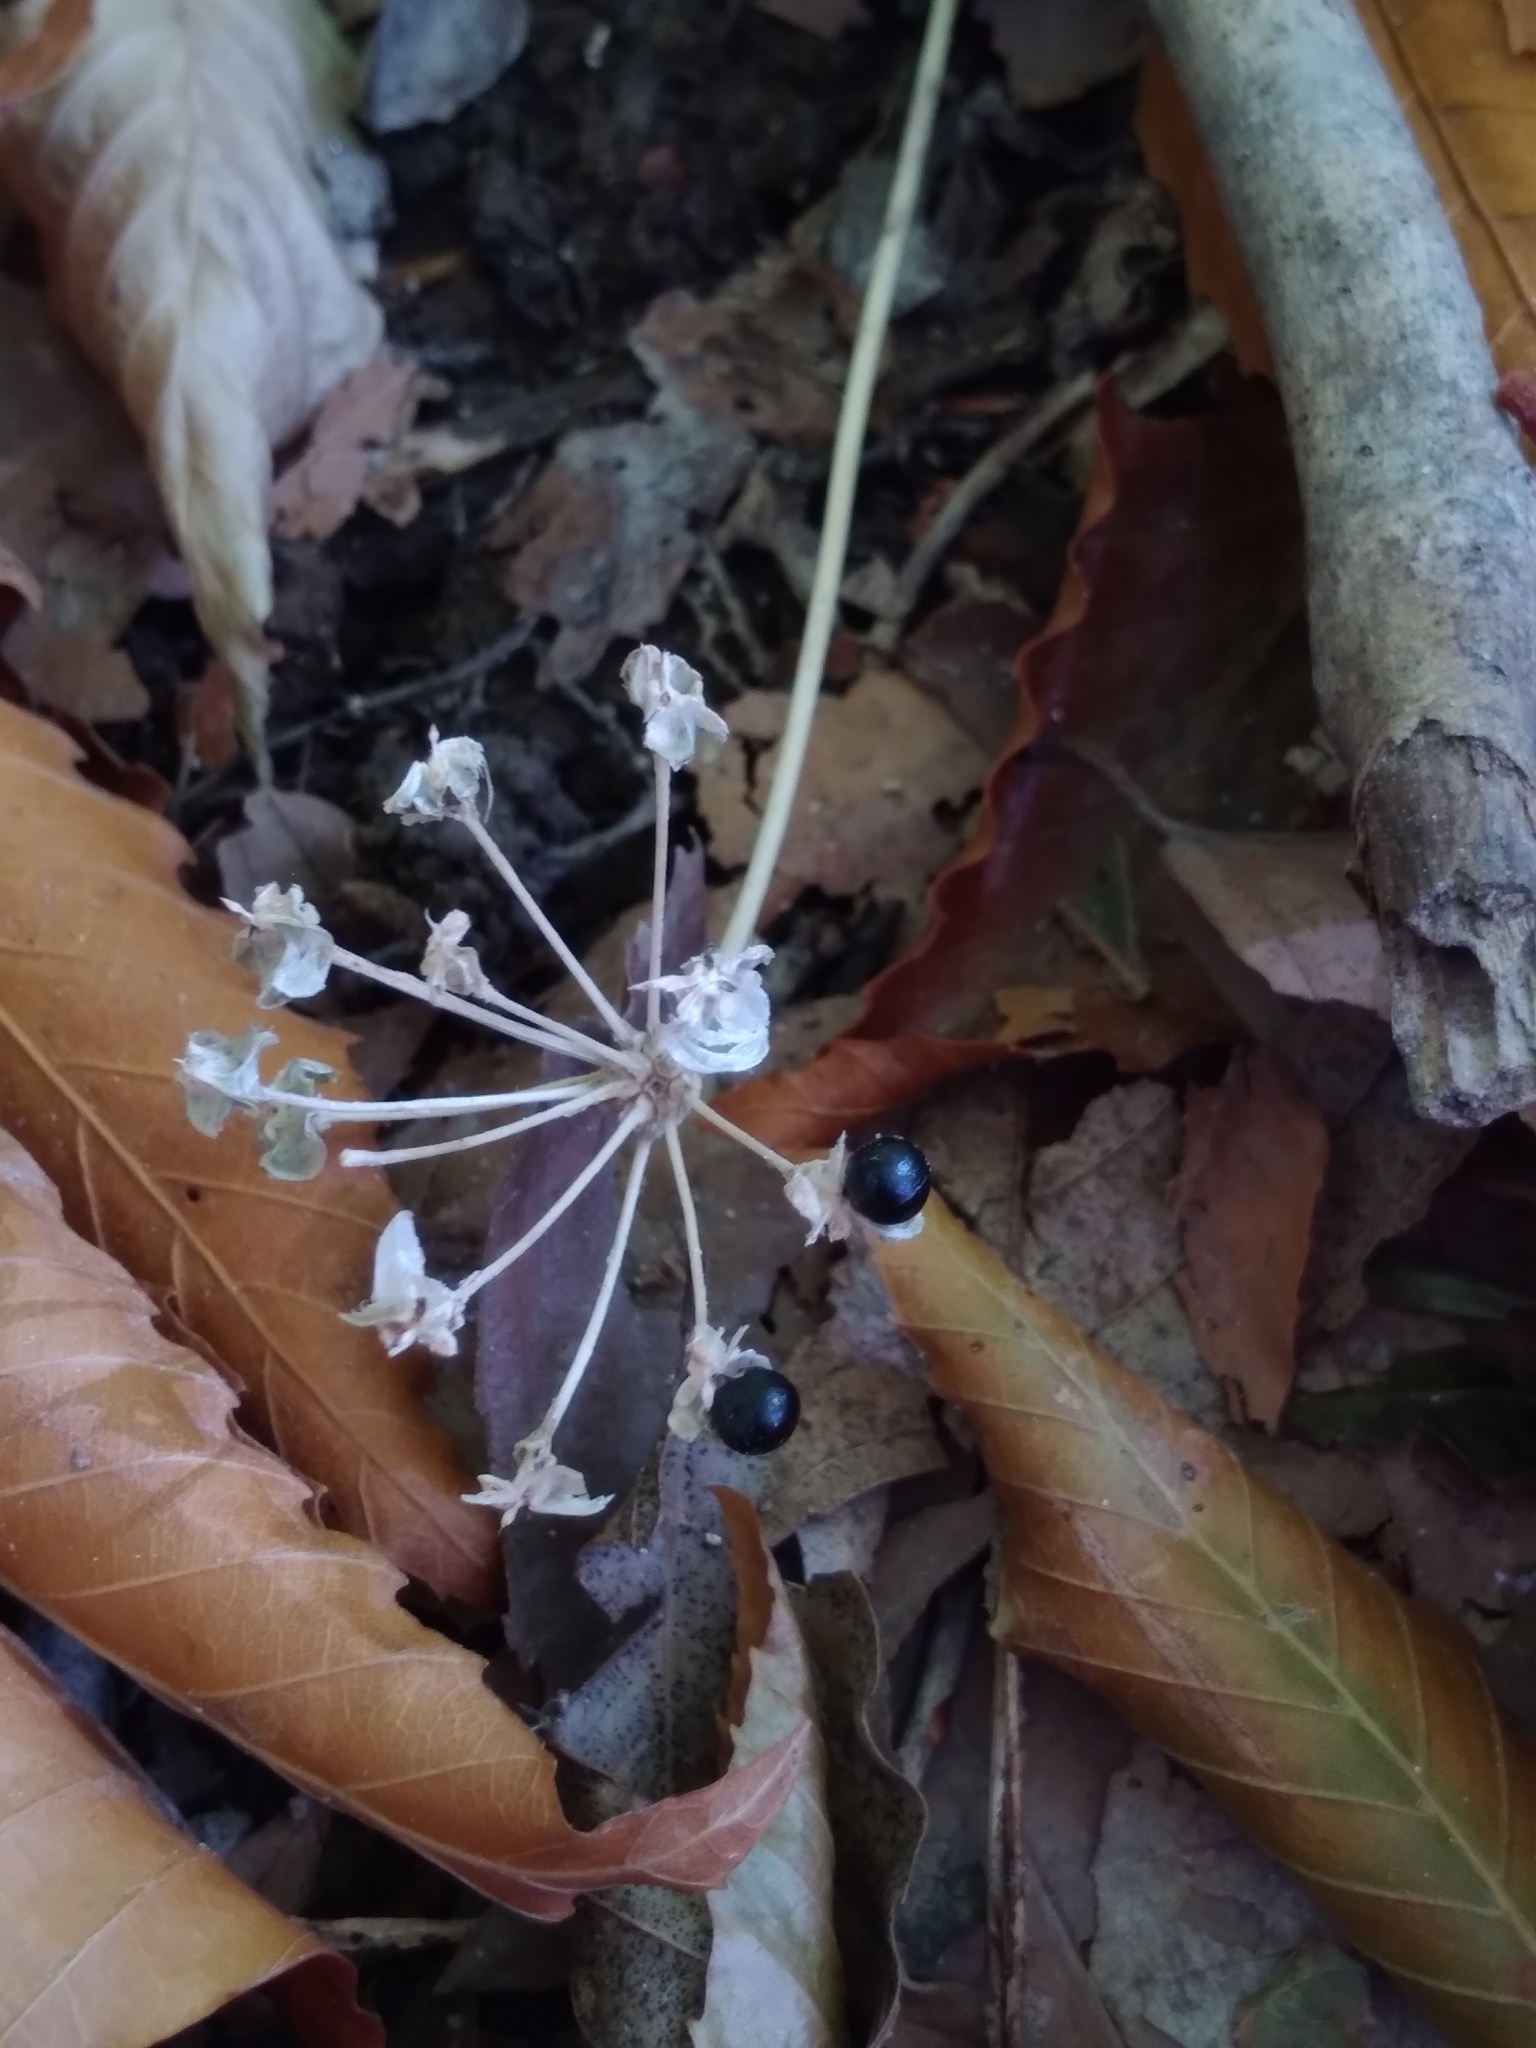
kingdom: Plantae
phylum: Tracheophyta
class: Liliopsida
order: Asparagales
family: Amaryllidaceae
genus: Allium
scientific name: Allium tricoccum
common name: Ramp
